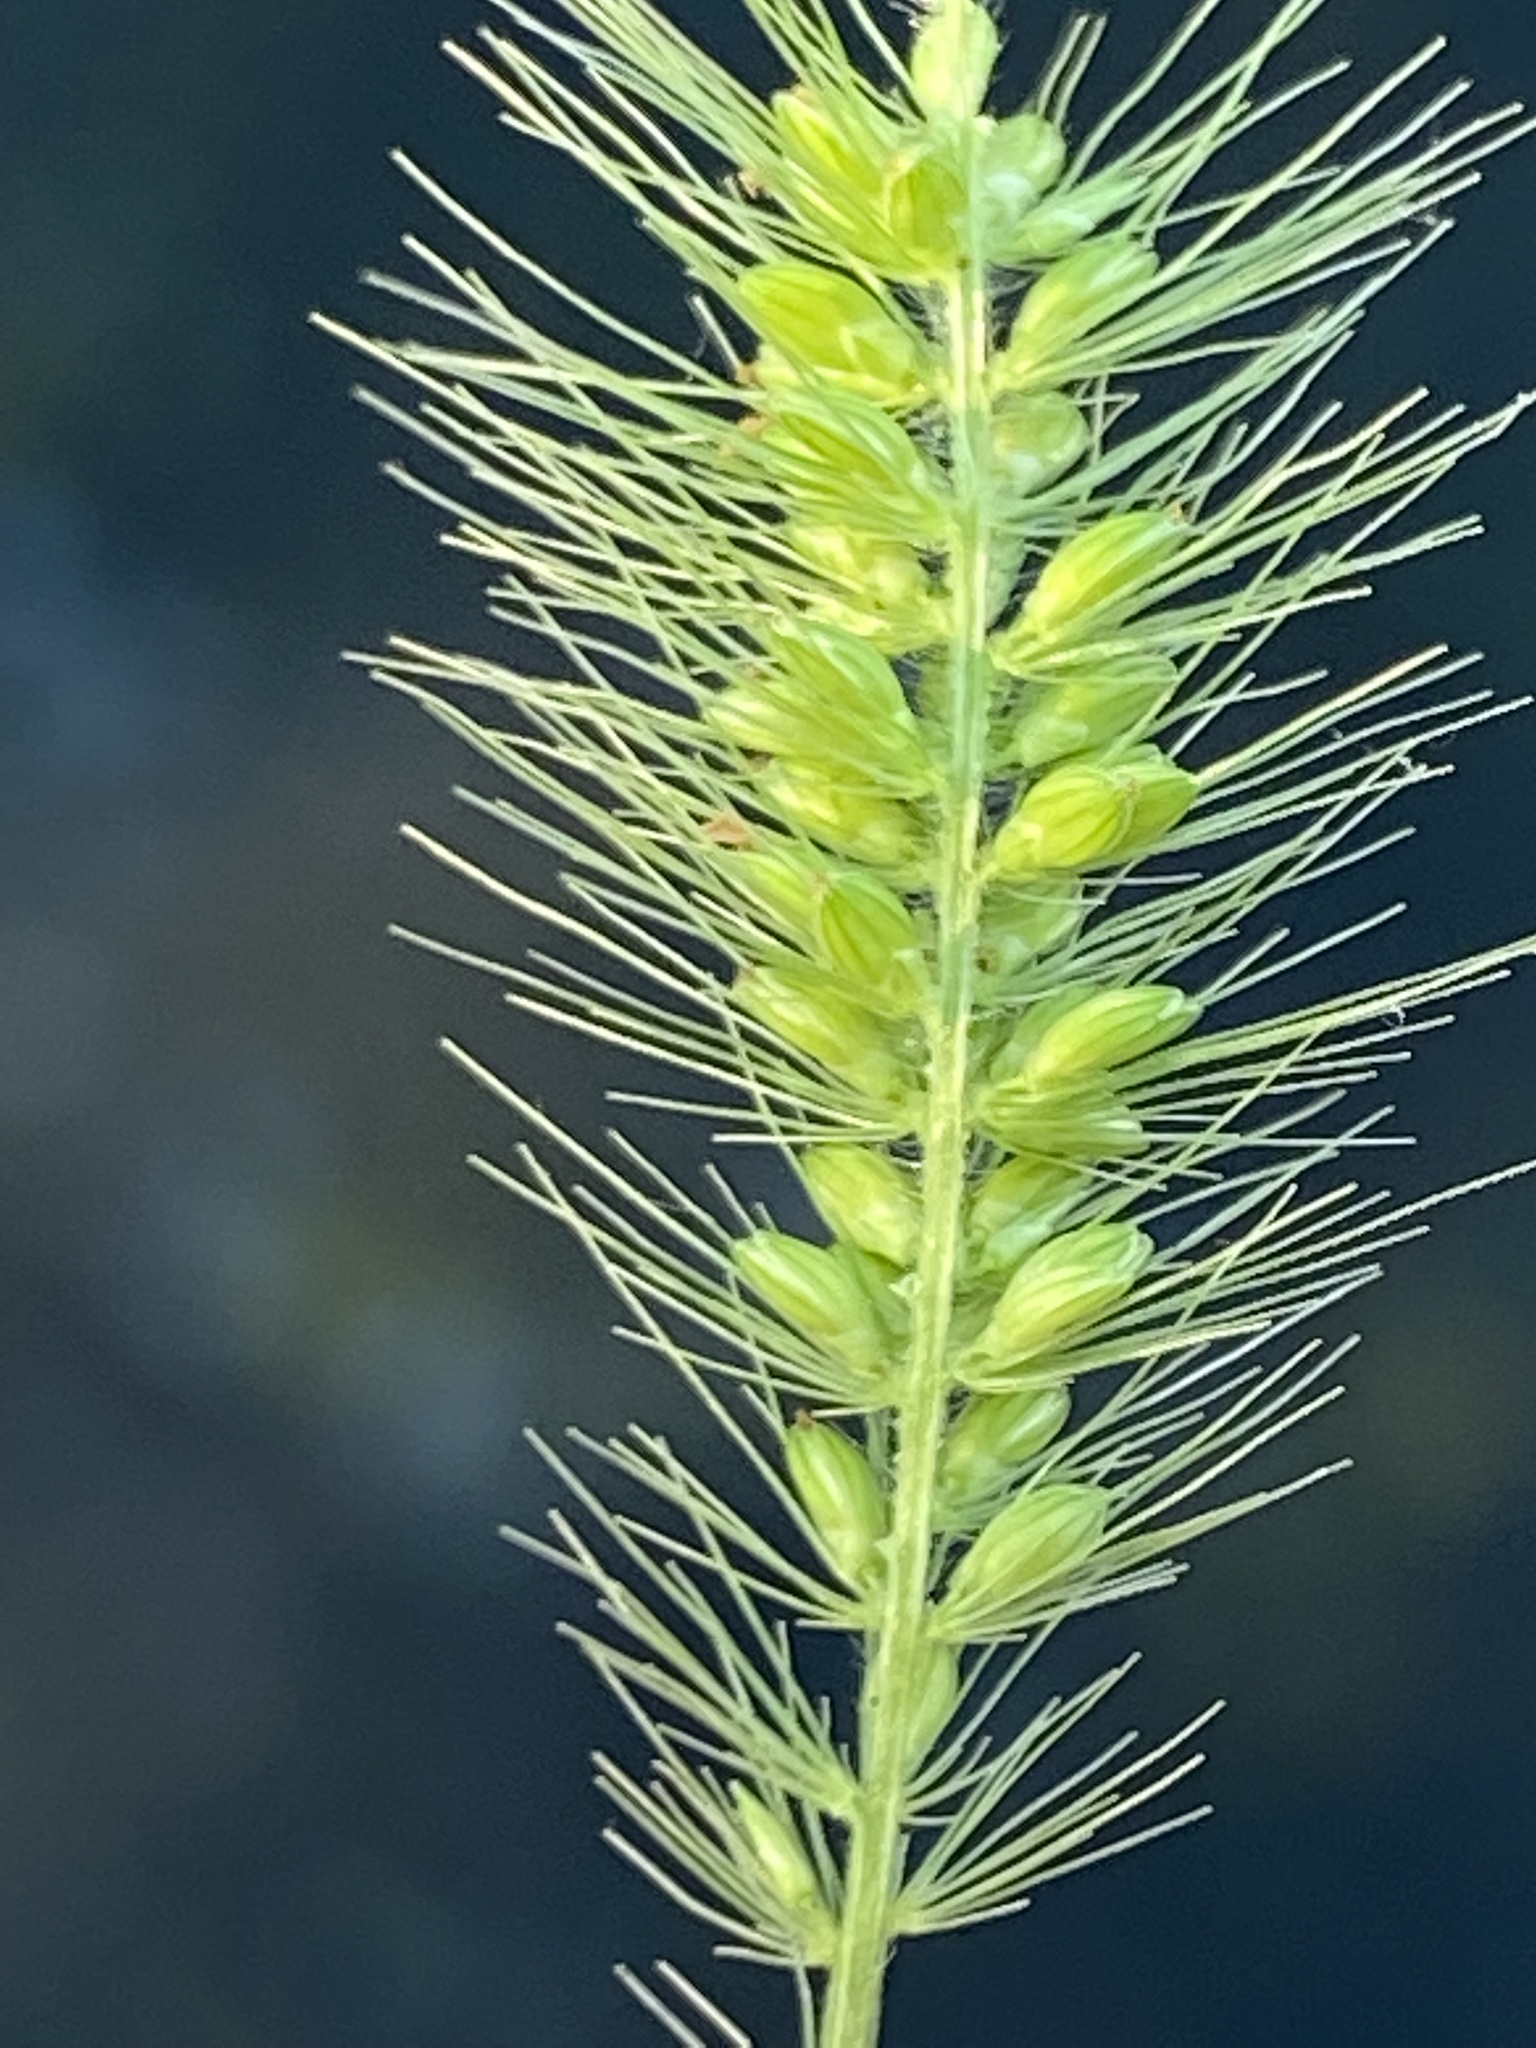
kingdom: Plantae
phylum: Tracheophyta
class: Liliopsida
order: Poales
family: Poaceae
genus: Setaria
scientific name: Setaria viridis
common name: Green bristlegrass
